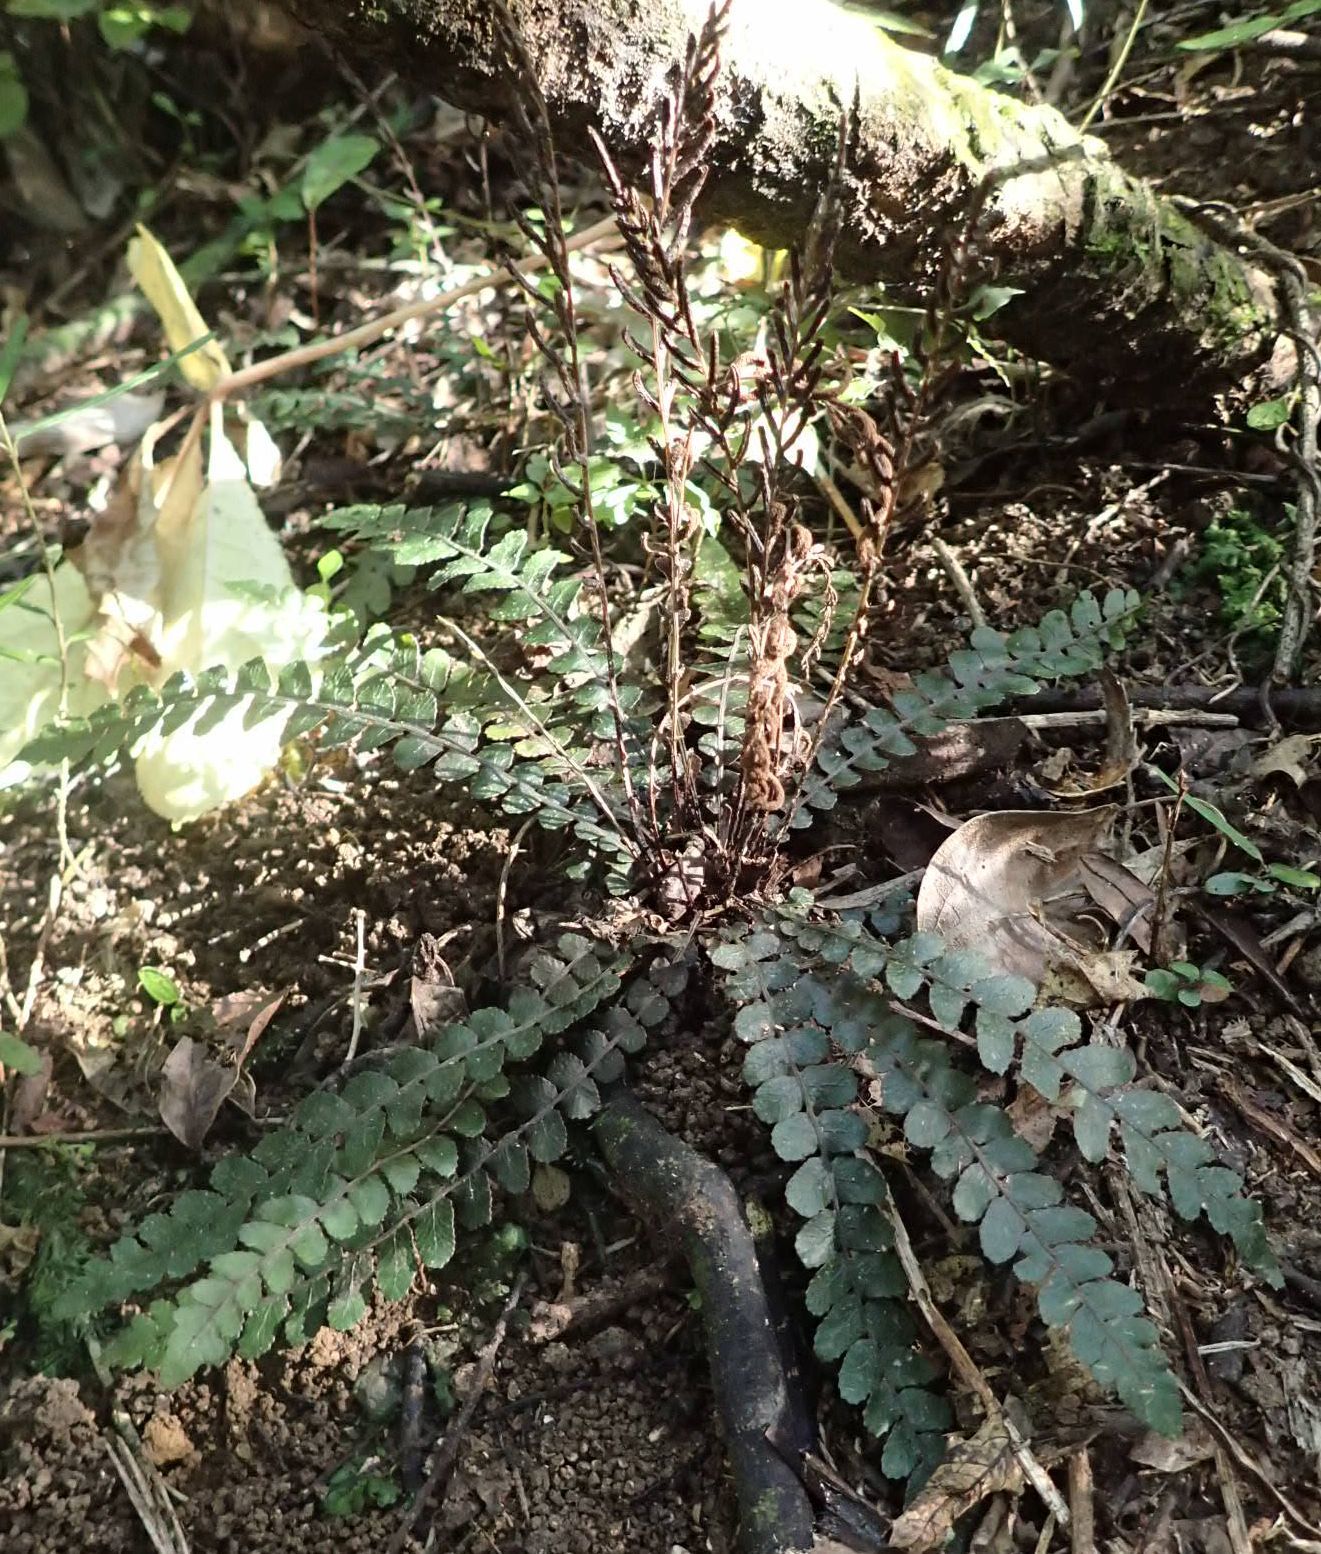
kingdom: Plantae
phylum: Tracheophyta
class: Polypodiopsida
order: Polypodiales
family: Blechnaceae
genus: Austroblechnum
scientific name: Austroblechnum membranaceum
